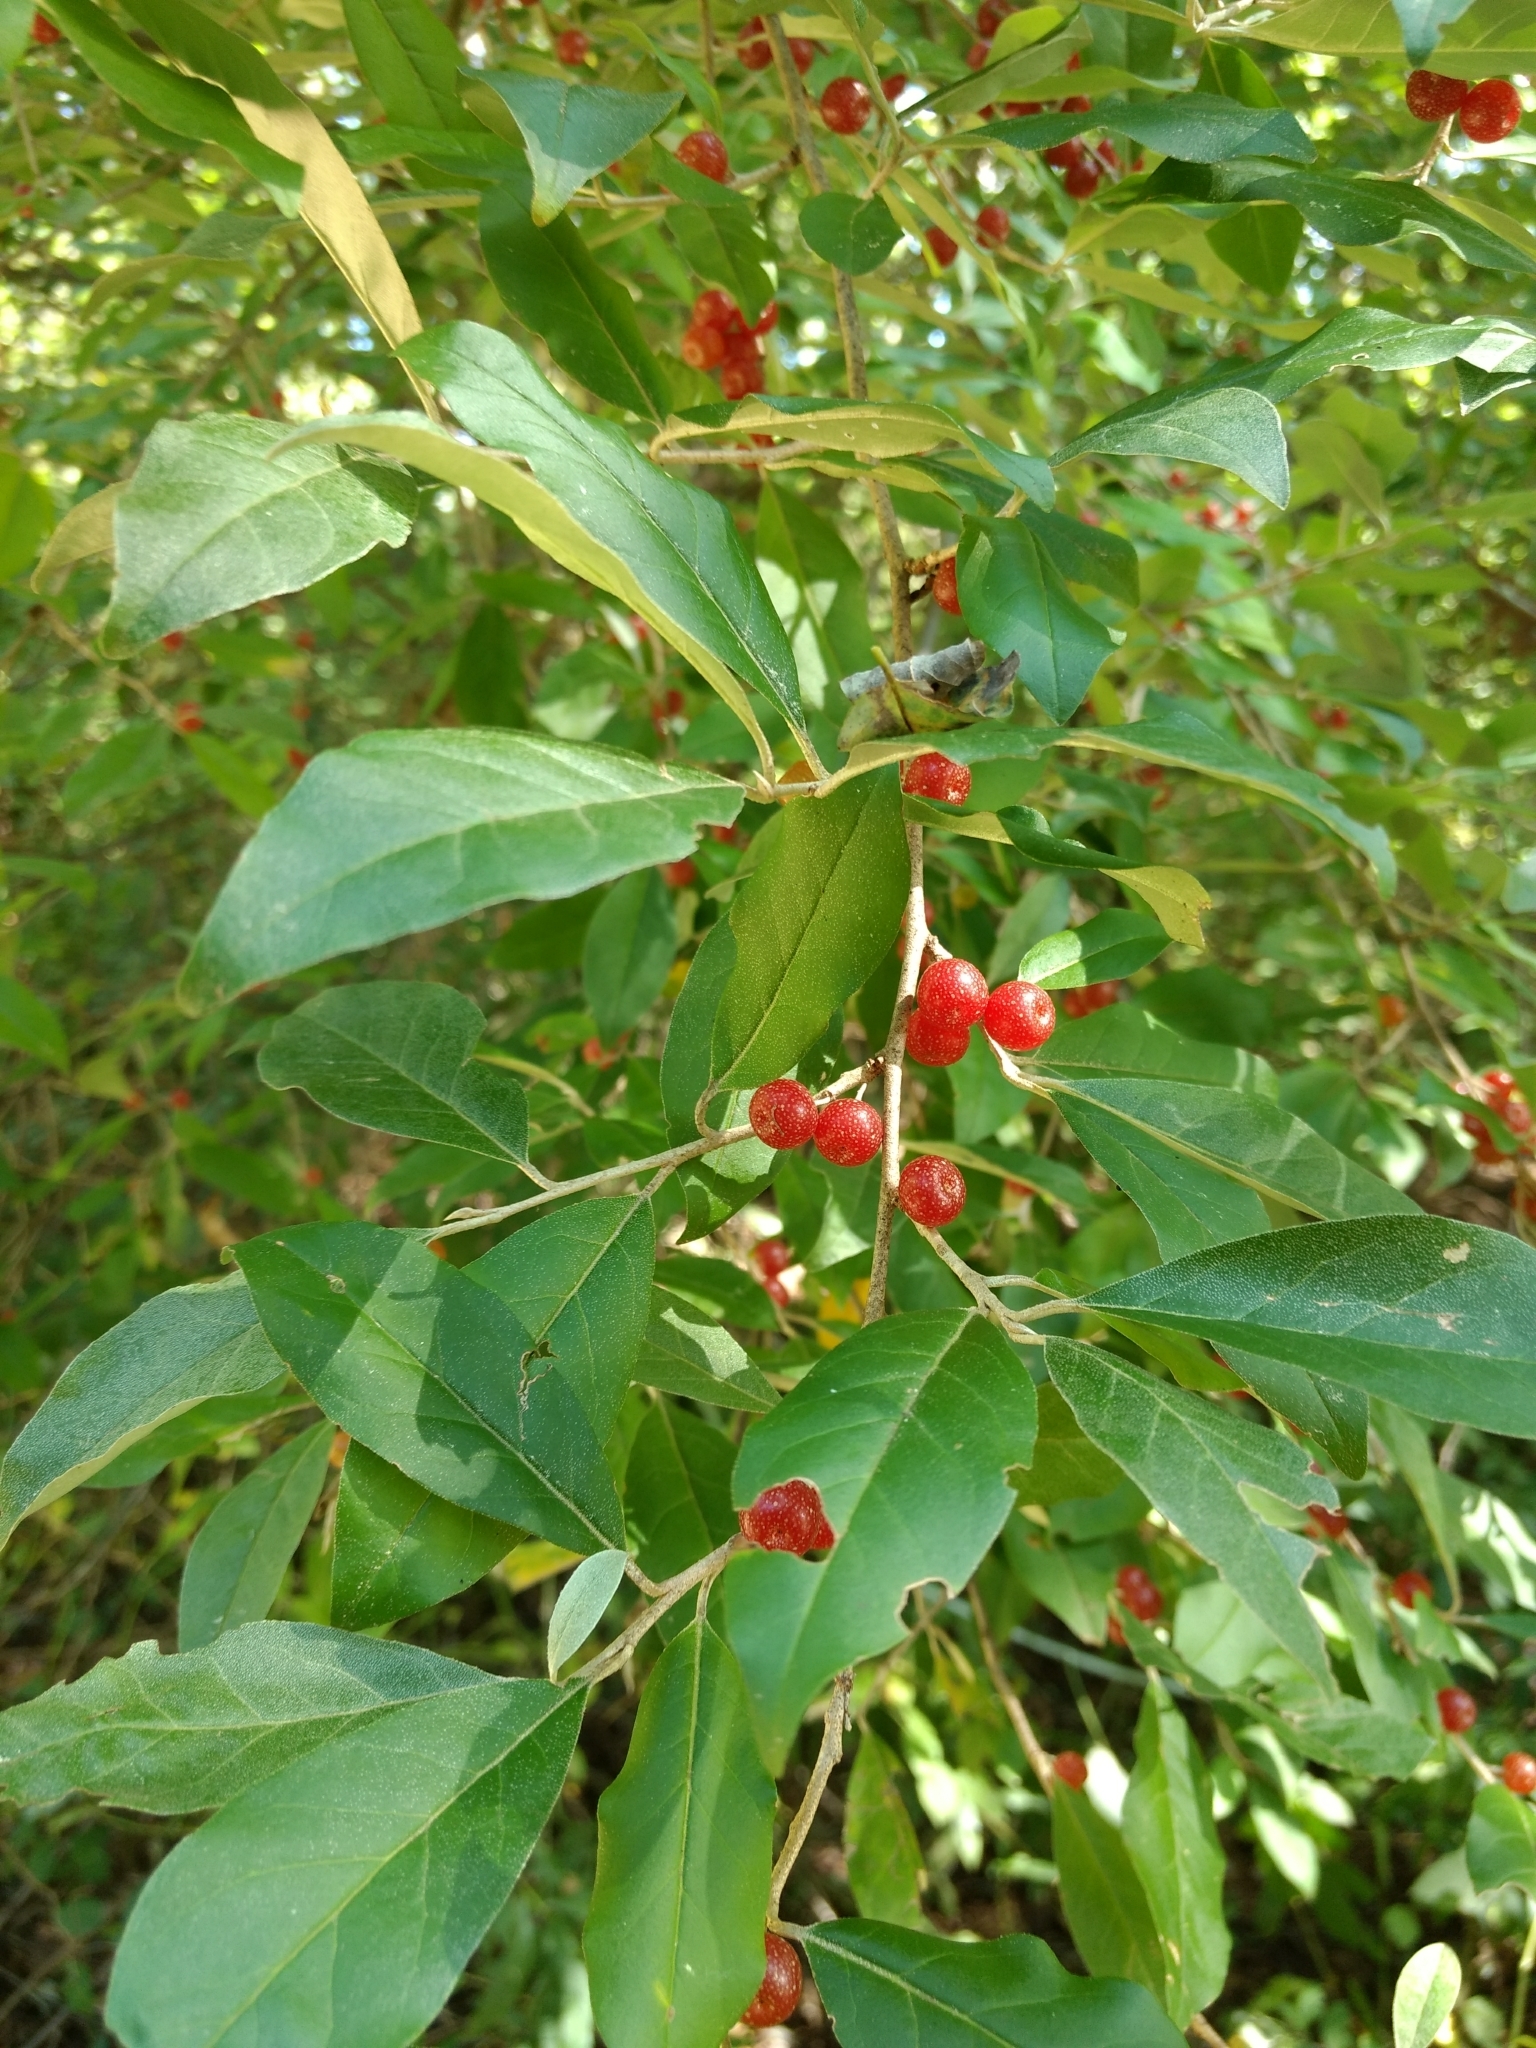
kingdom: Plantae
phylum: Tracheophyta
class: Magnoliopsida
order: Rosales
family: Elaeagnaceae
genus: Elaeagnus
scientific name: Elaeagnus umbellata
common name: Autumn olive
